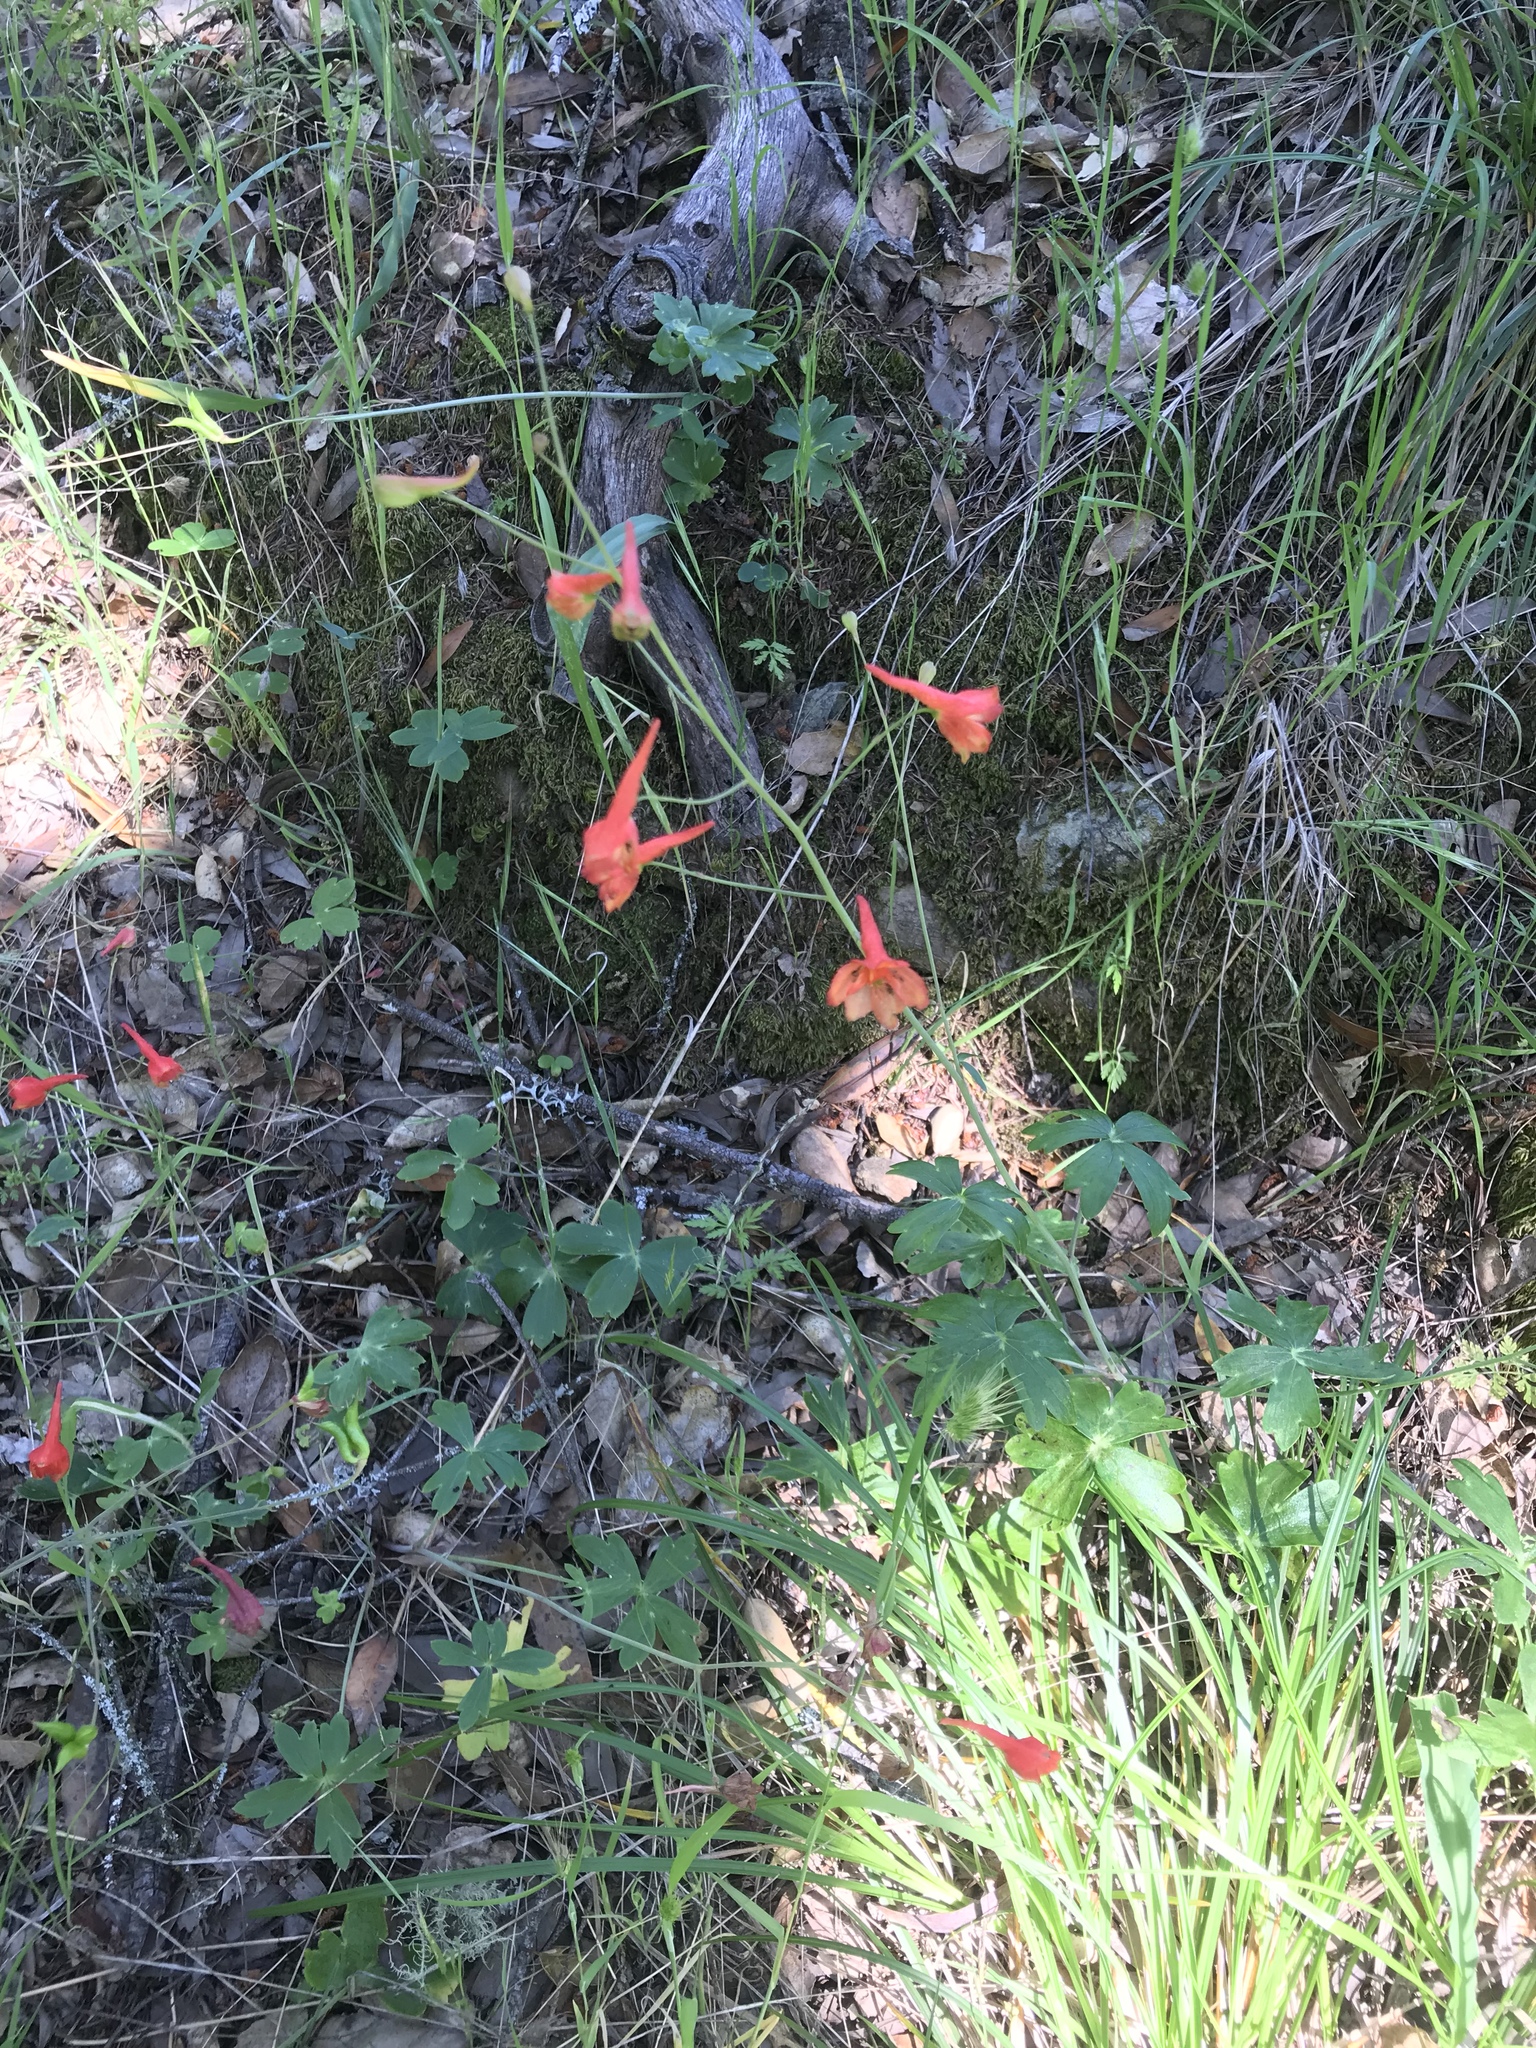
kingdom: Plantae
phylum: Tracheophyta
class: Magnoliopsida
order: Ranunculales
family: Ranunculaceae
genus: Delphinium
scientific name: Delphinium nudicaule
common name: Red larkspur
